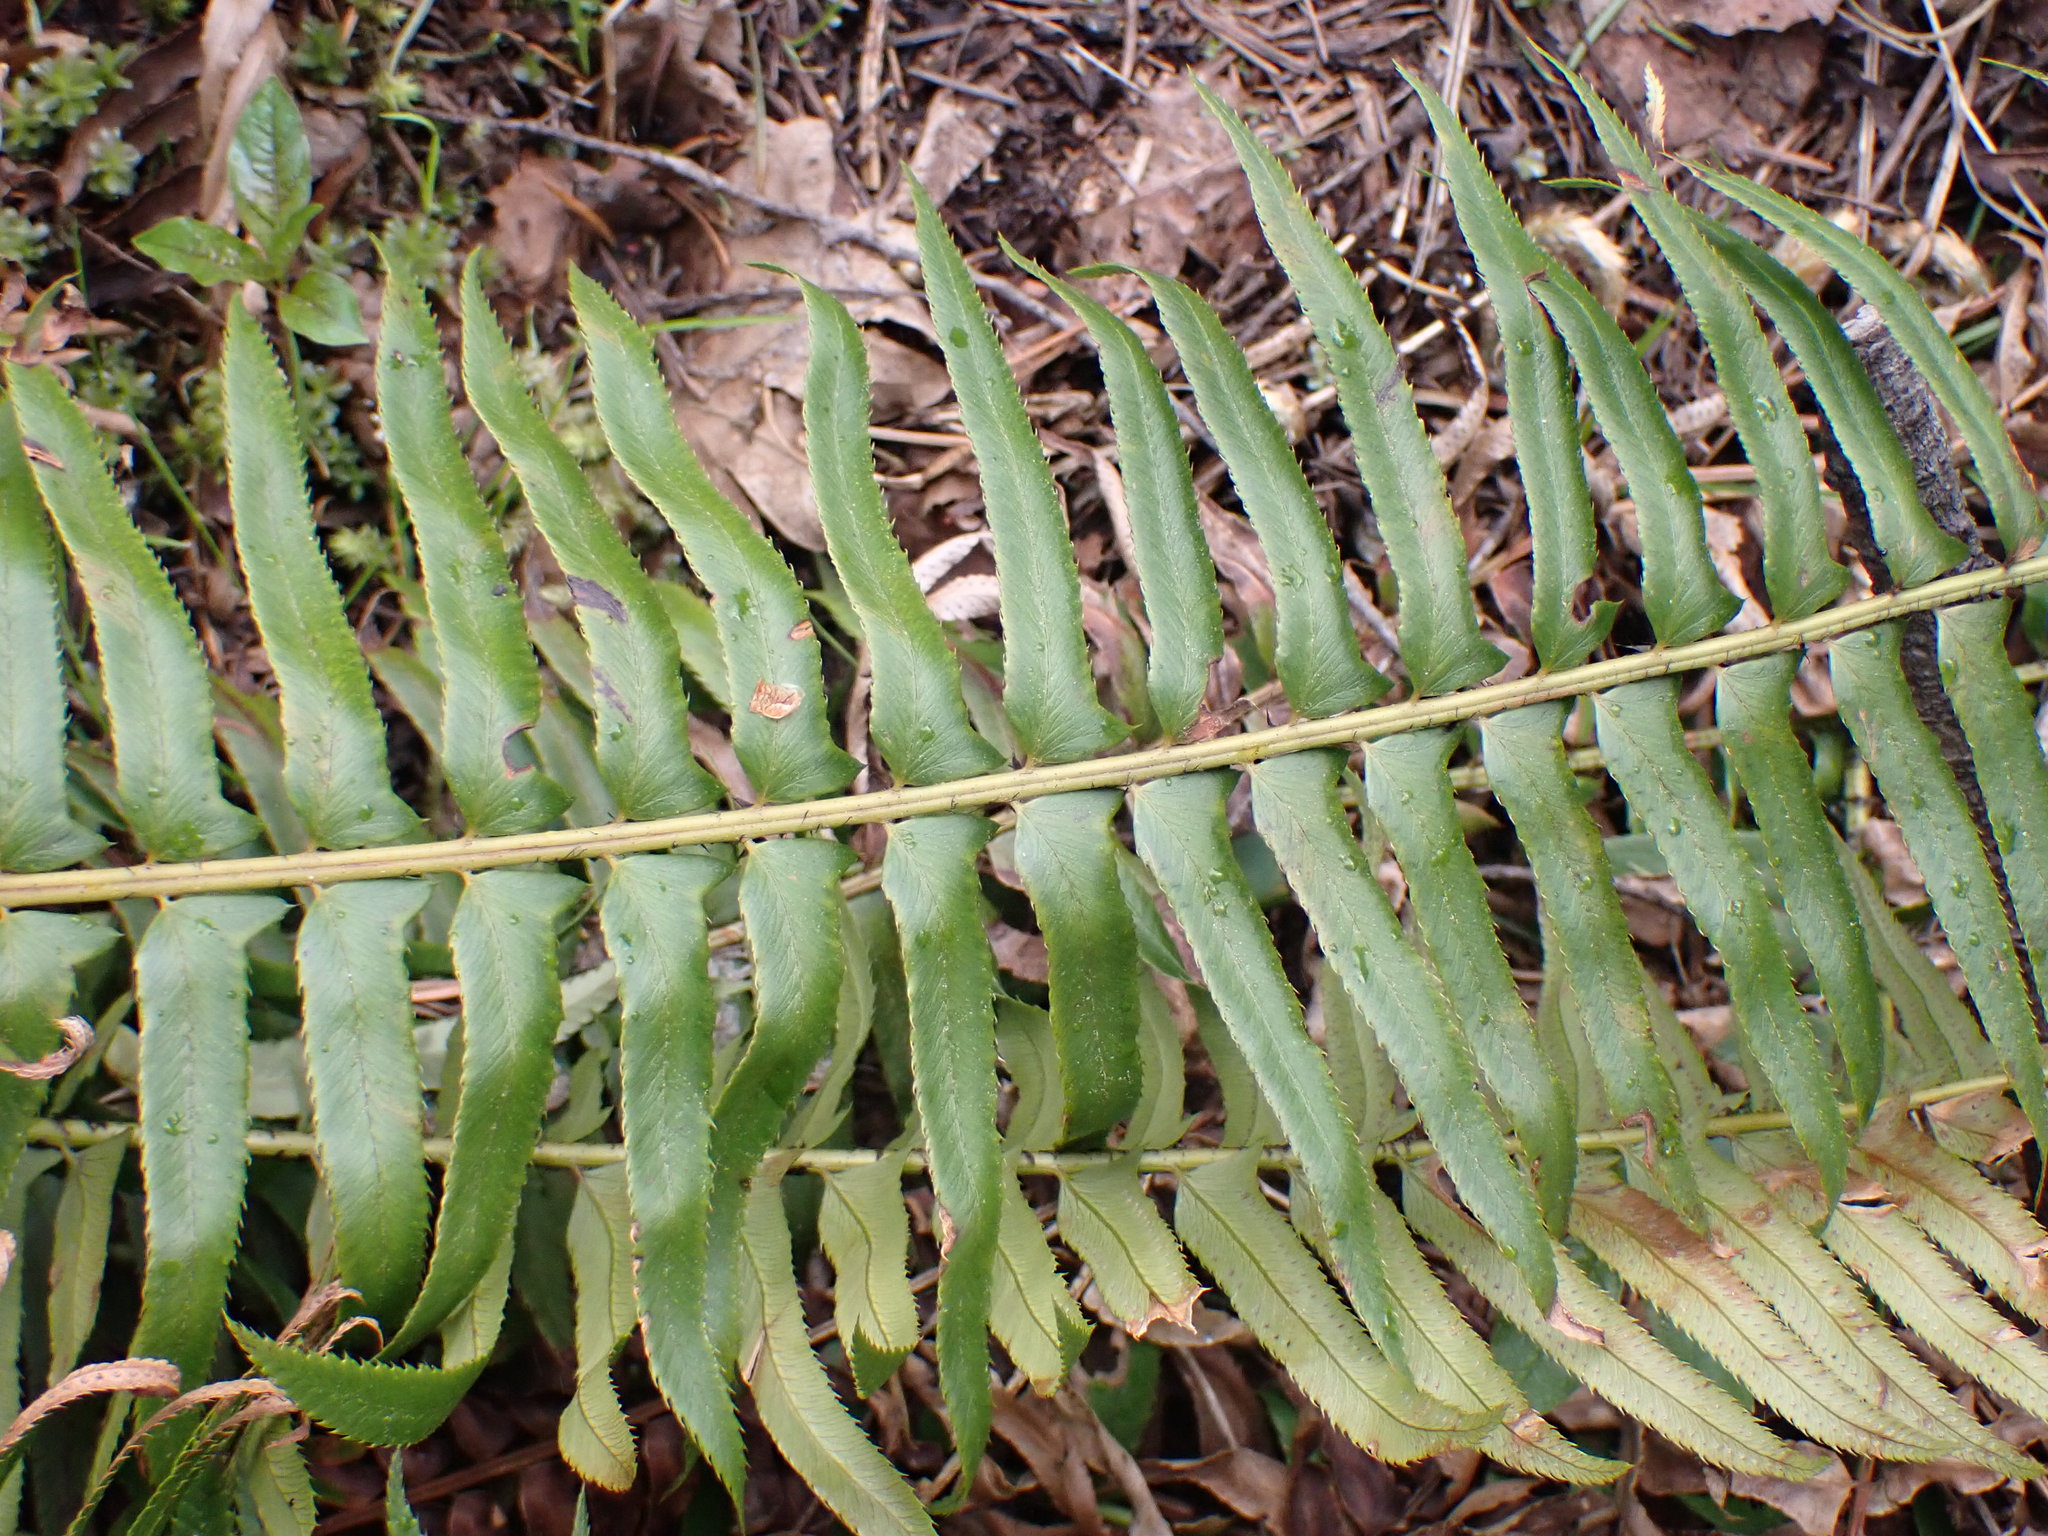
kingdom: Plantae
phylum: Tracheophyta
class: Polypodiopsida
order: Polypodiales
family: Dryopteridaceae
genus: Polystichum
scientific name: Polystichum munitum
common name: Western sword-fern
